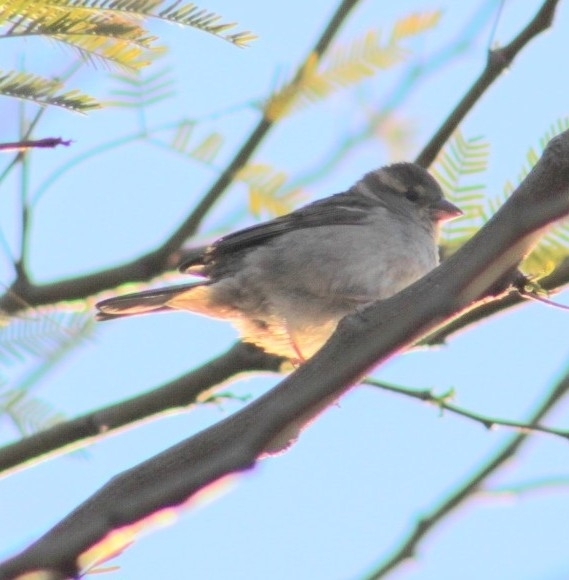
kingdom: Animalia
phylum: Chordata
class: Aves
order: Passeriformes
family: Passeridae
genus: Passer
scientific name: Passer domesticus
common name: House sparrow
